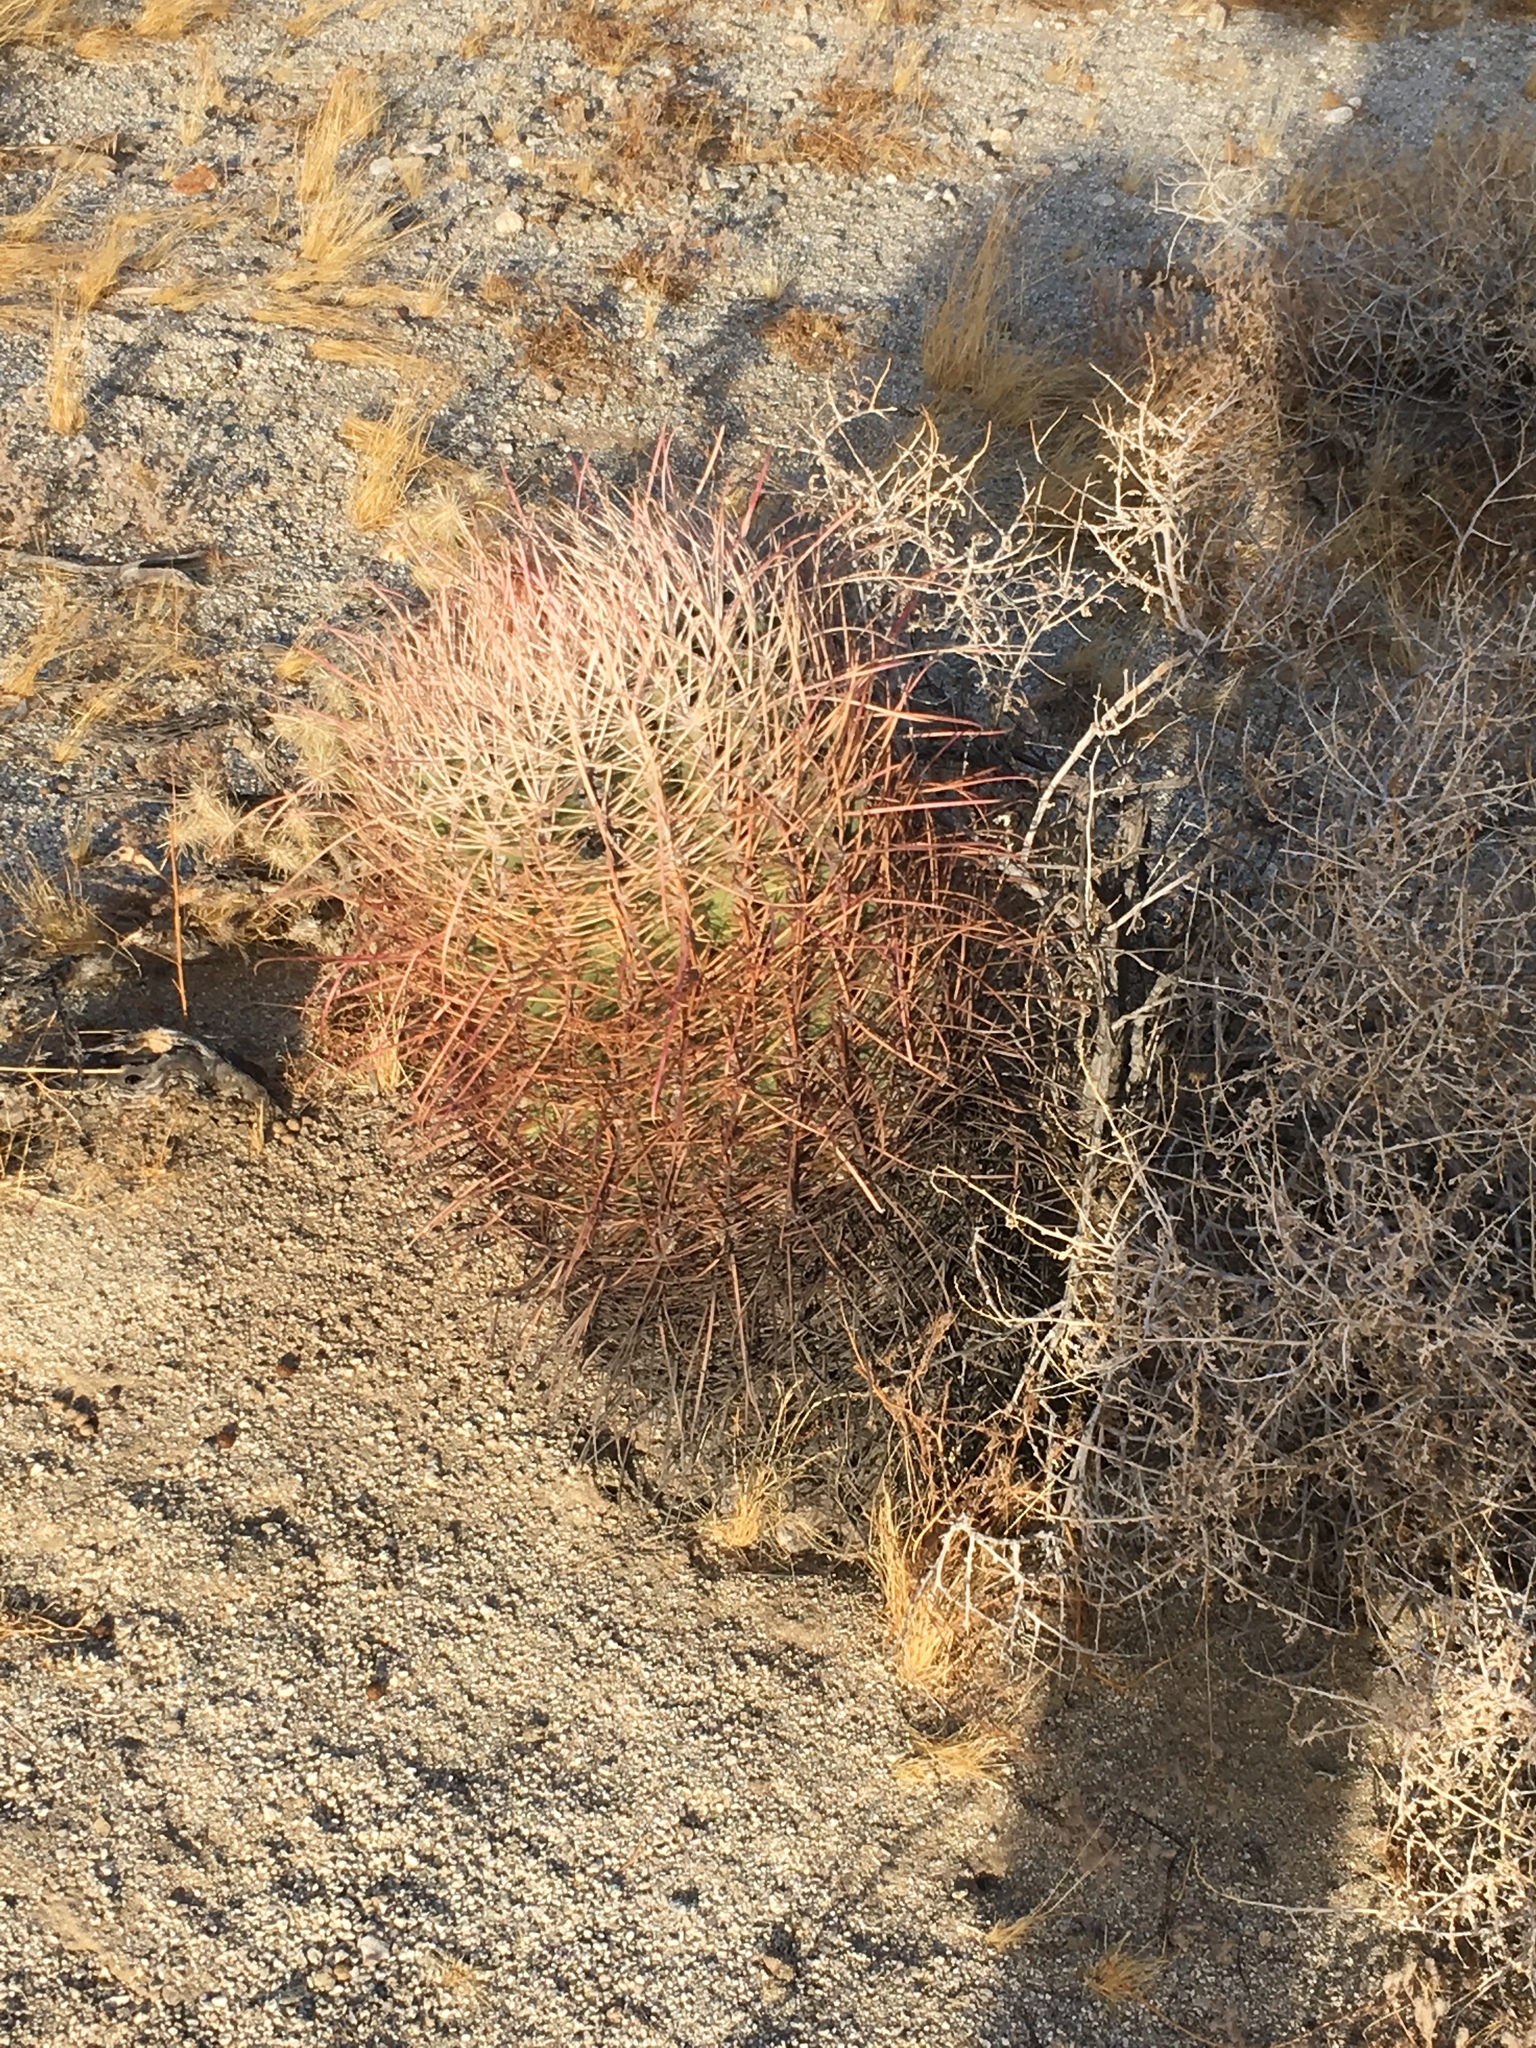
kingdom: Plantae
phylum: Tracheophyta
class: Magnoliopsida
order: Caryophyllales
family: Cactaceae
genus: Ferocactus
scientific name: Ferocactus cylindraceus
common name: California barrel cactus
